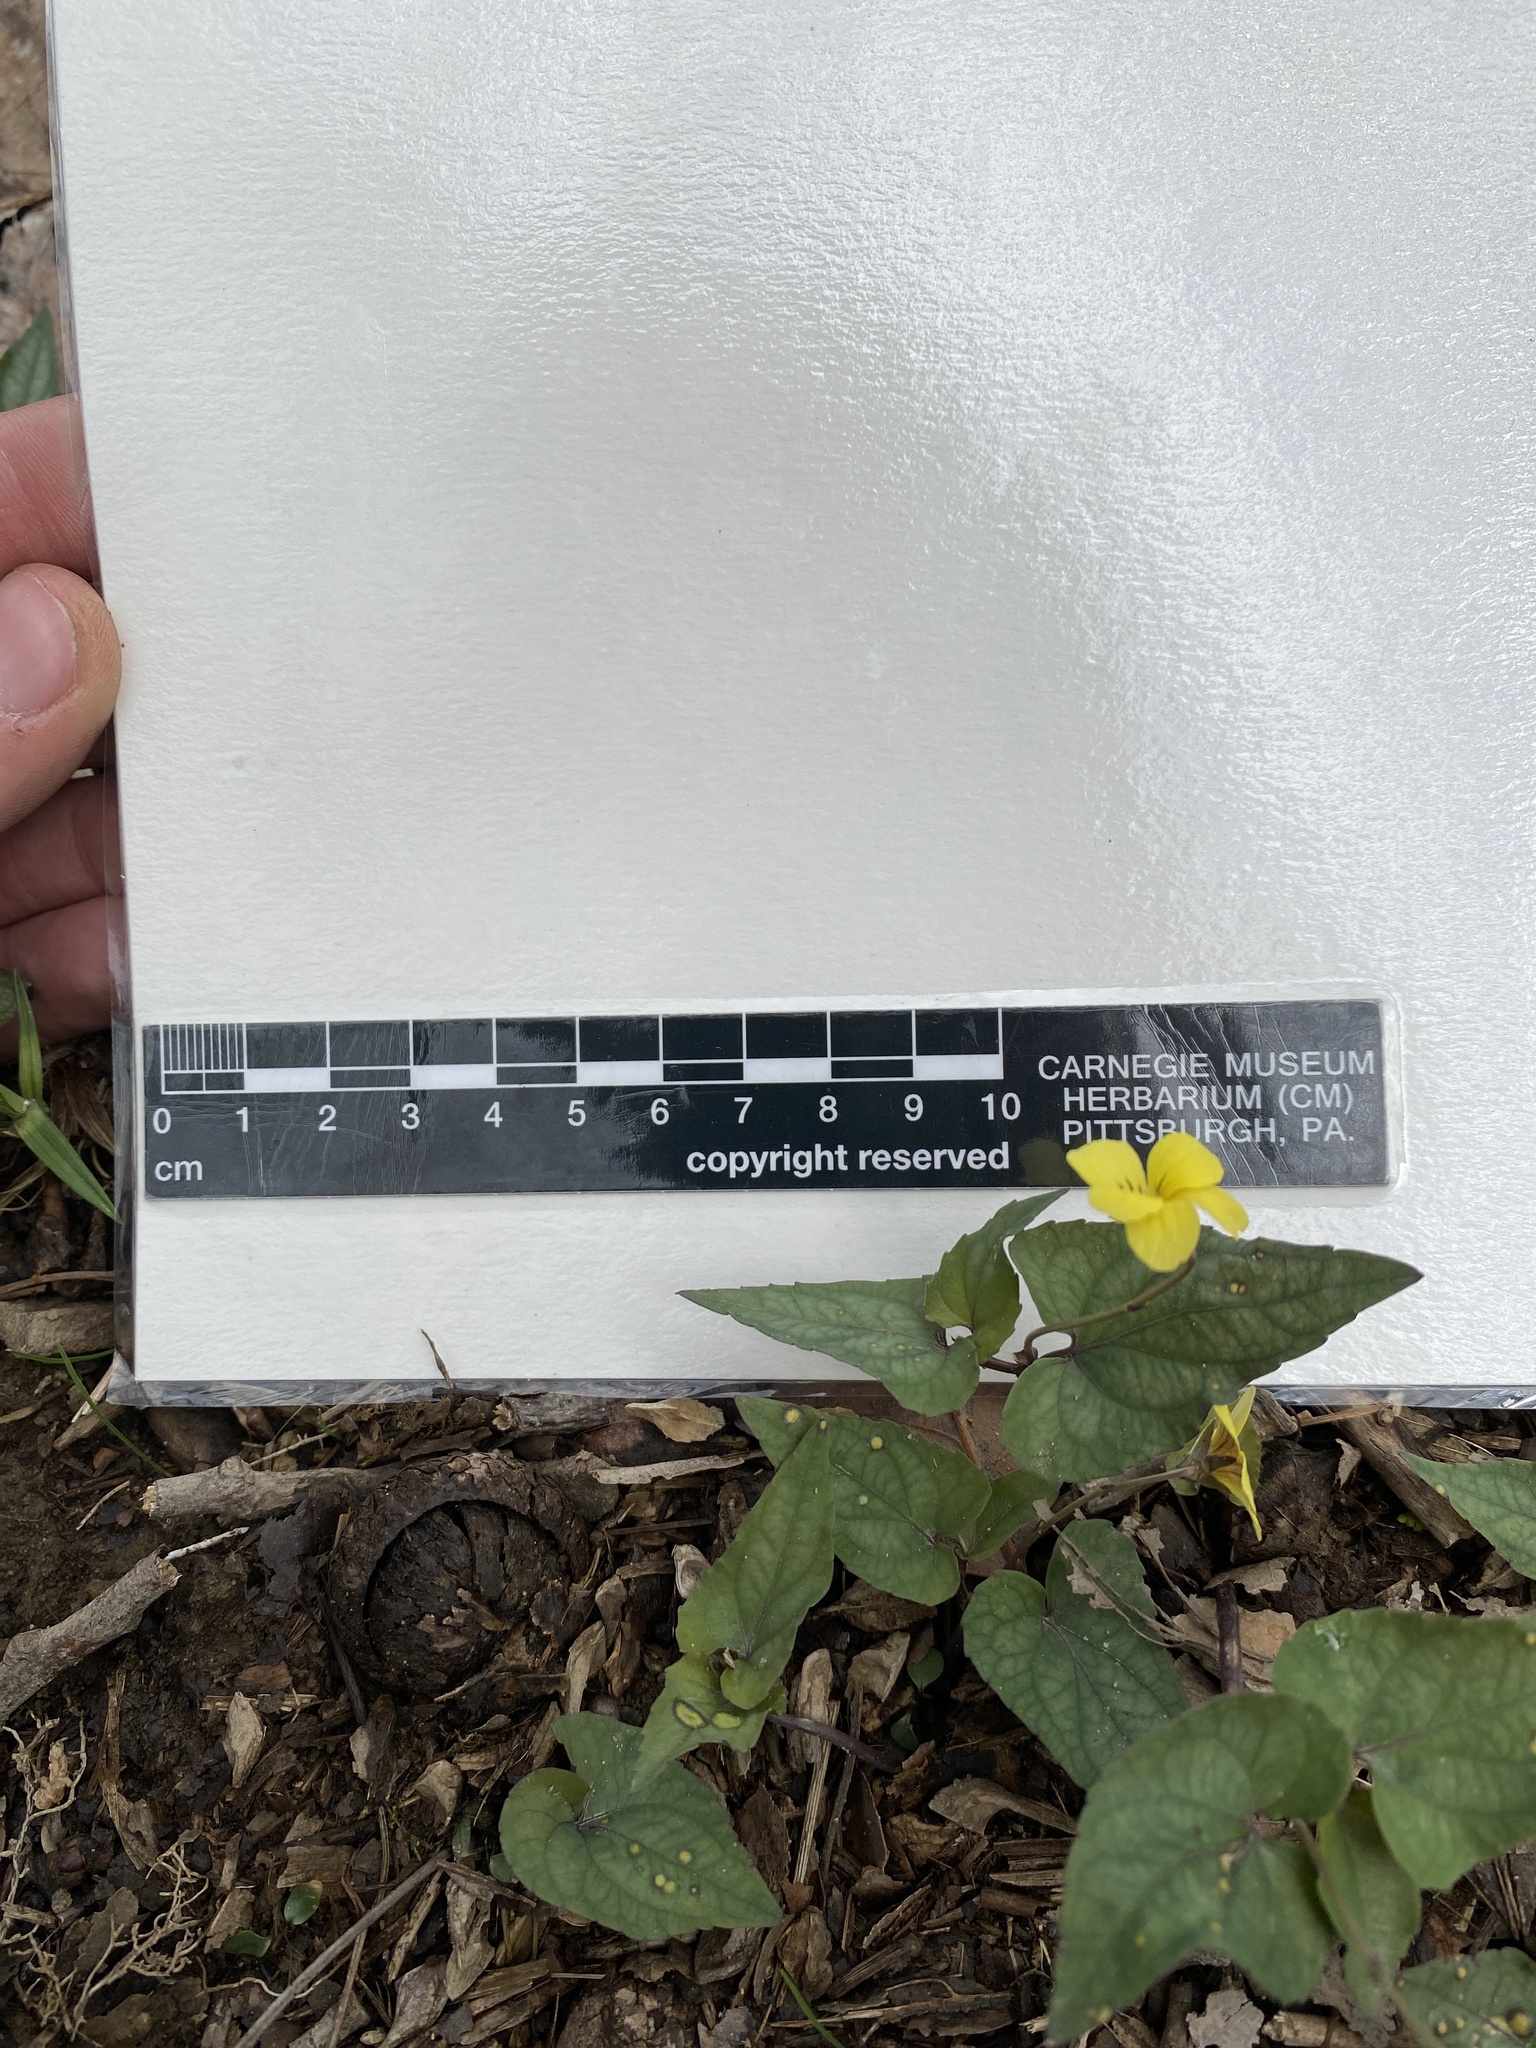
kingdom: Plantae
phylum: Tracheophyta
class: Magnoliopsida
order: Malpighiales
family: Violaceae
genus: Viola
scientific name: Viola hastata
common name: Spear-leaf violet
